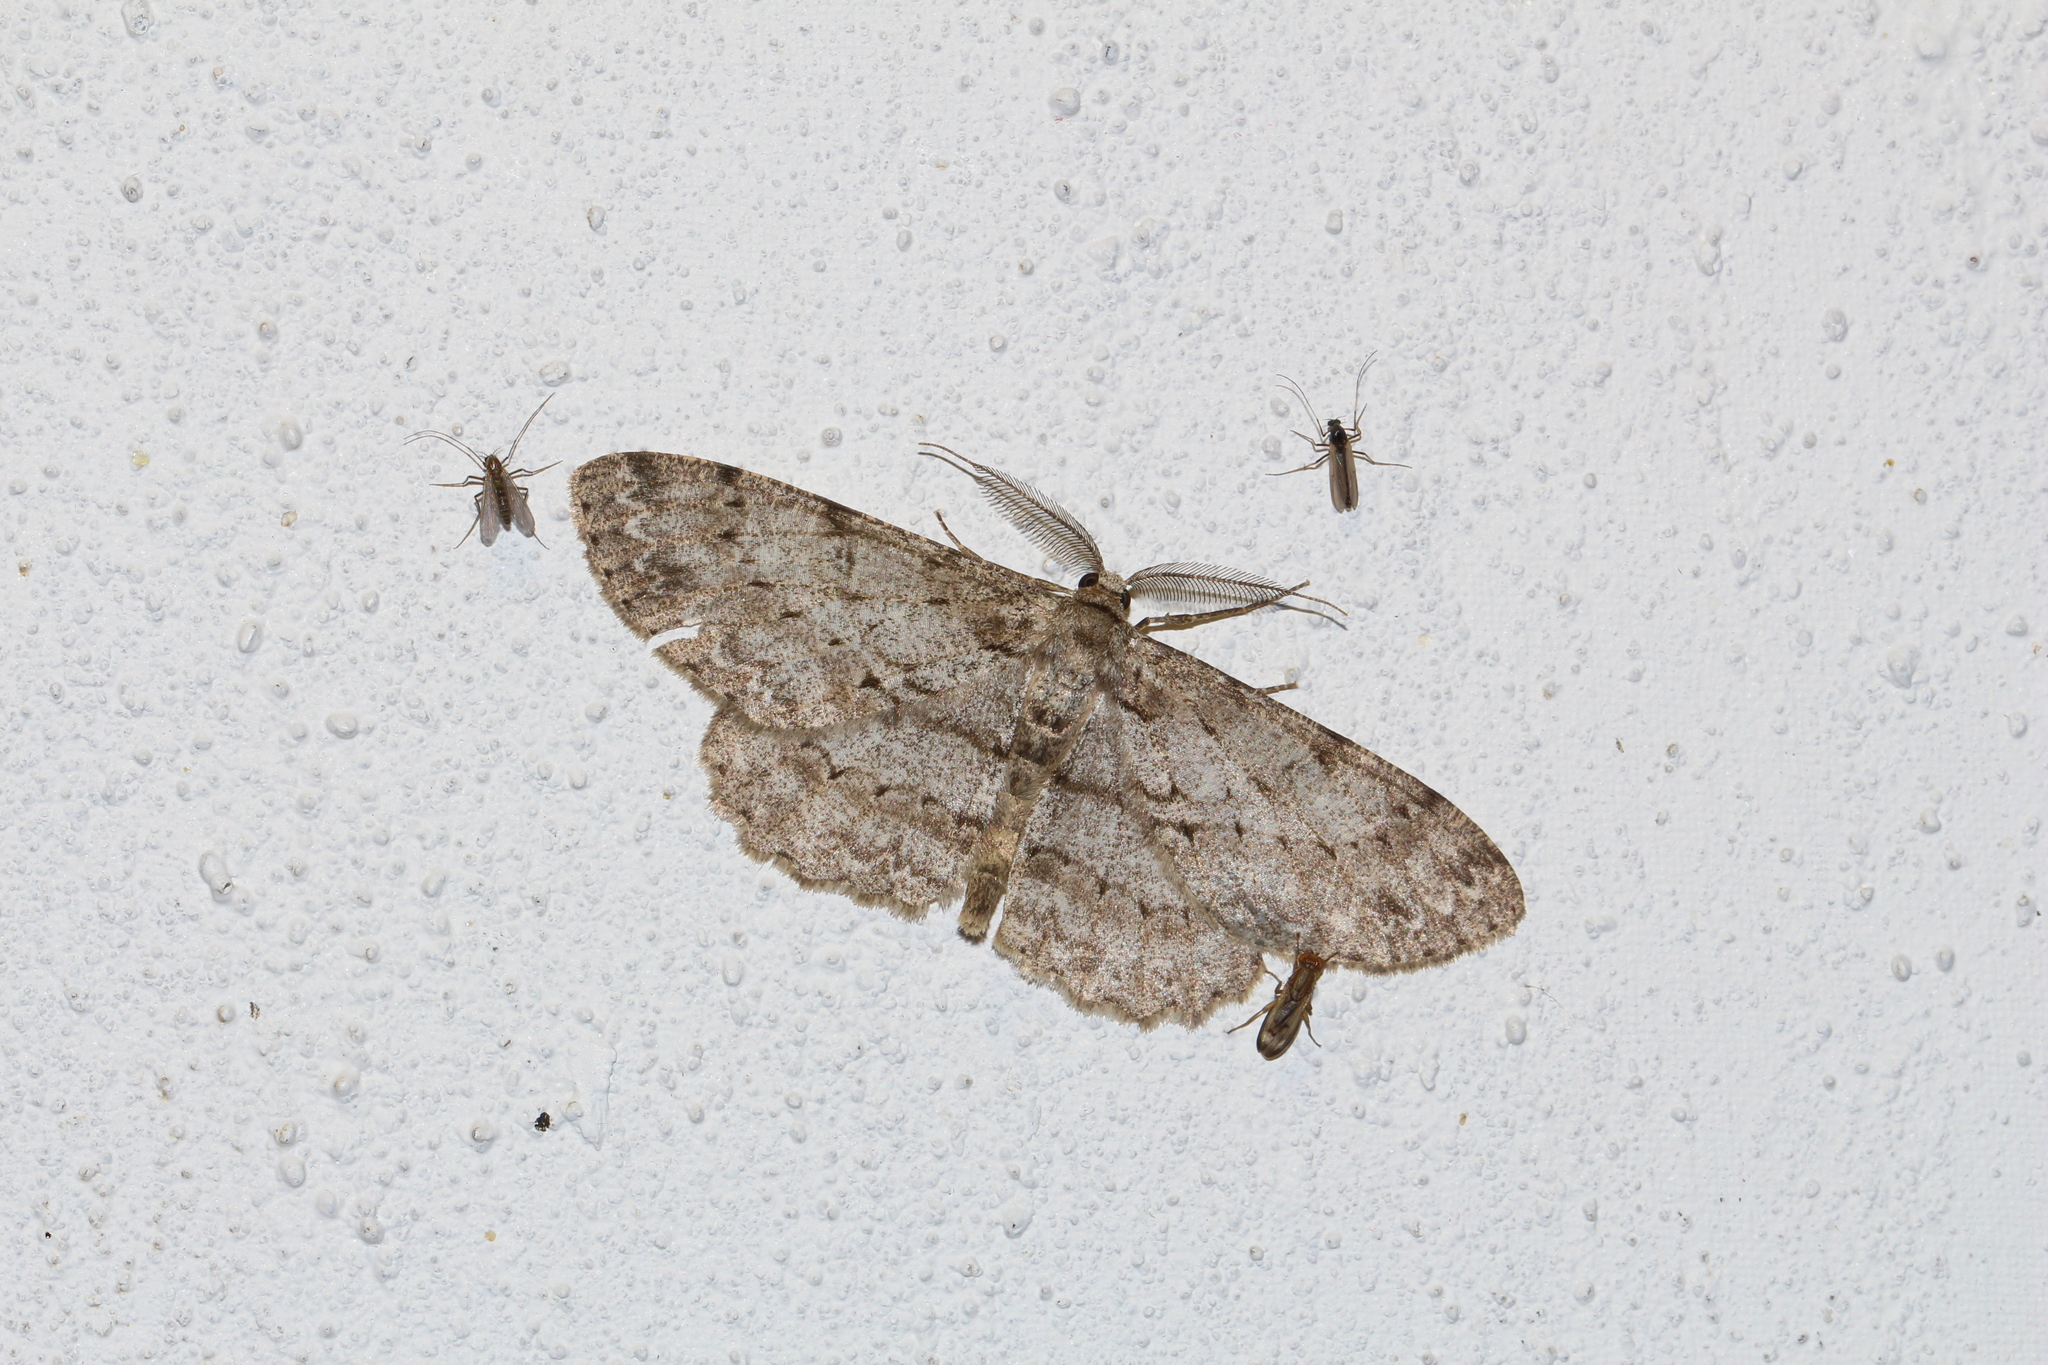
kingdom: Animalia
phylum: Arthropoda
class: Insecta
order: Lepidoptera
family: Geometridae
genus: Hypomecis
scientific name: Hypomecis punctinalis
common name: Pale oak beauty
